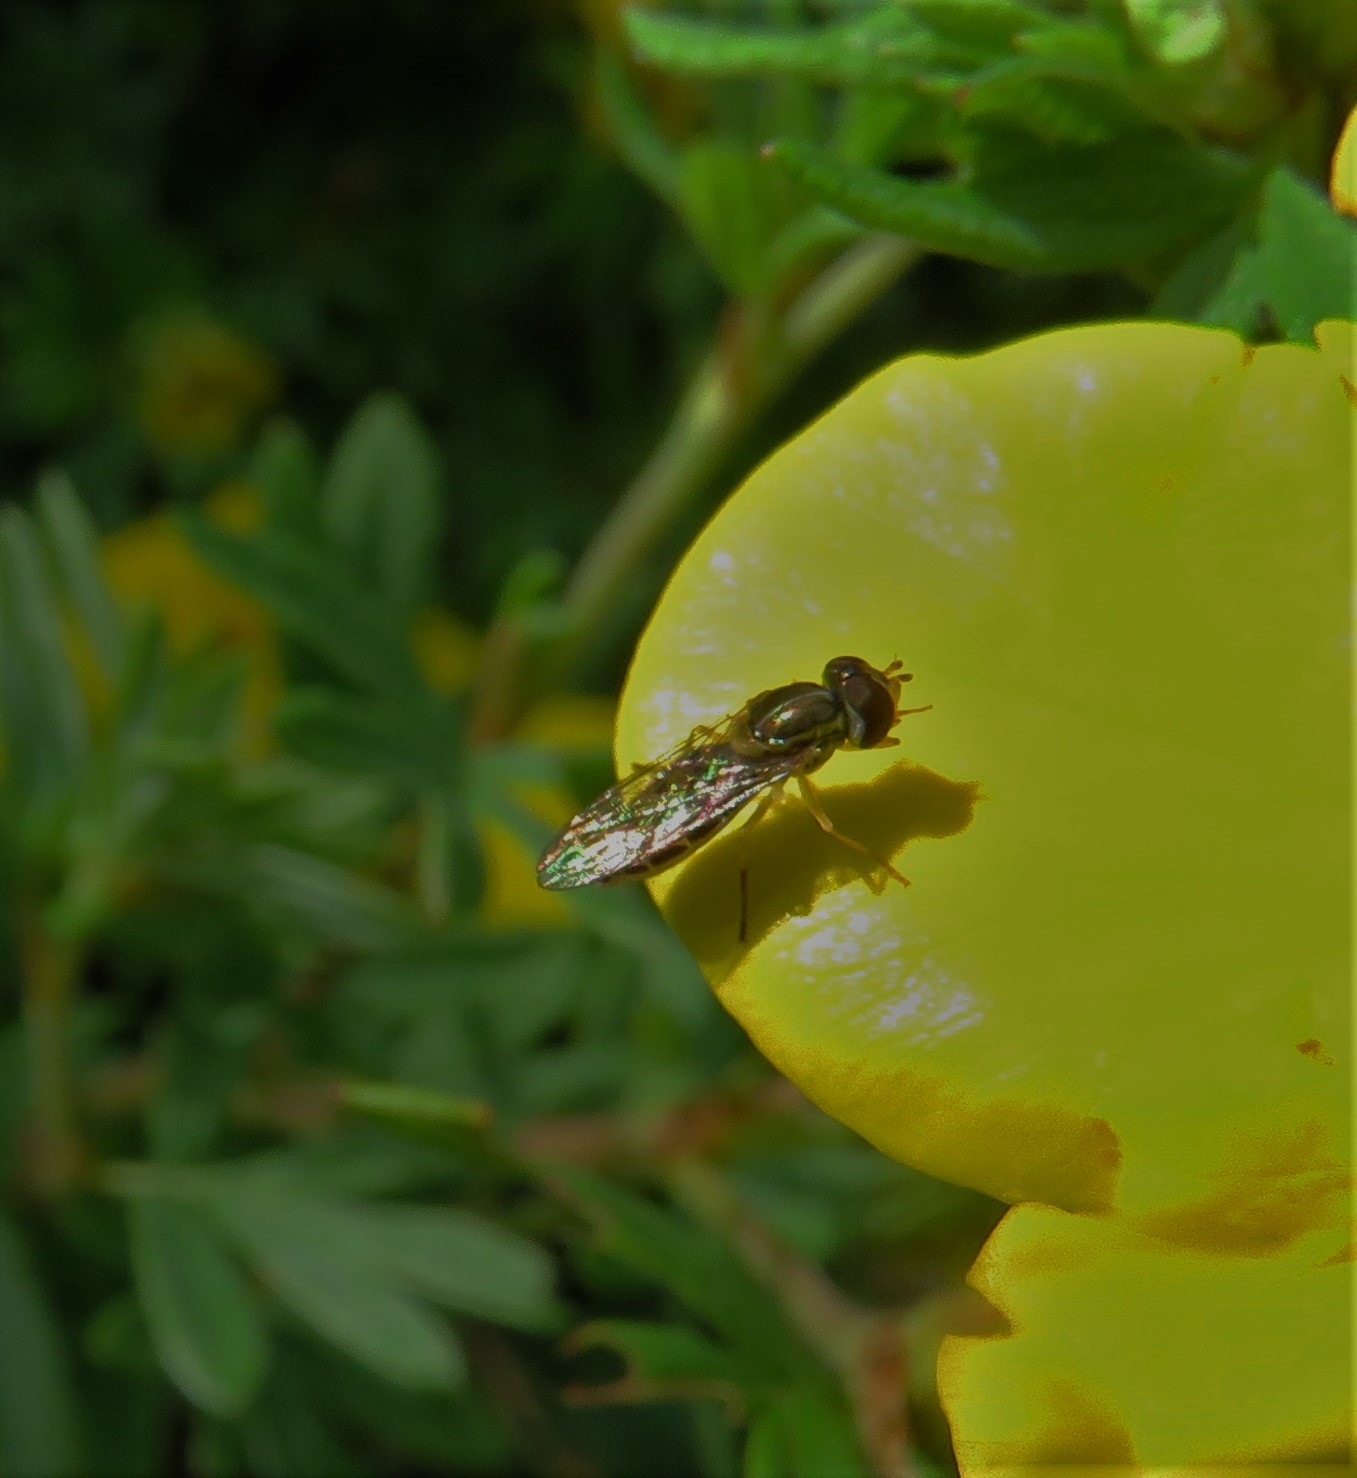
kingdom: Animalia
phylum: Arthropoda
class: Insecta
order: Diptera
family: Syrphidae
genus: Toxomerus
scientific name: Toxomerus marginatus
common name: Syrphid fly
